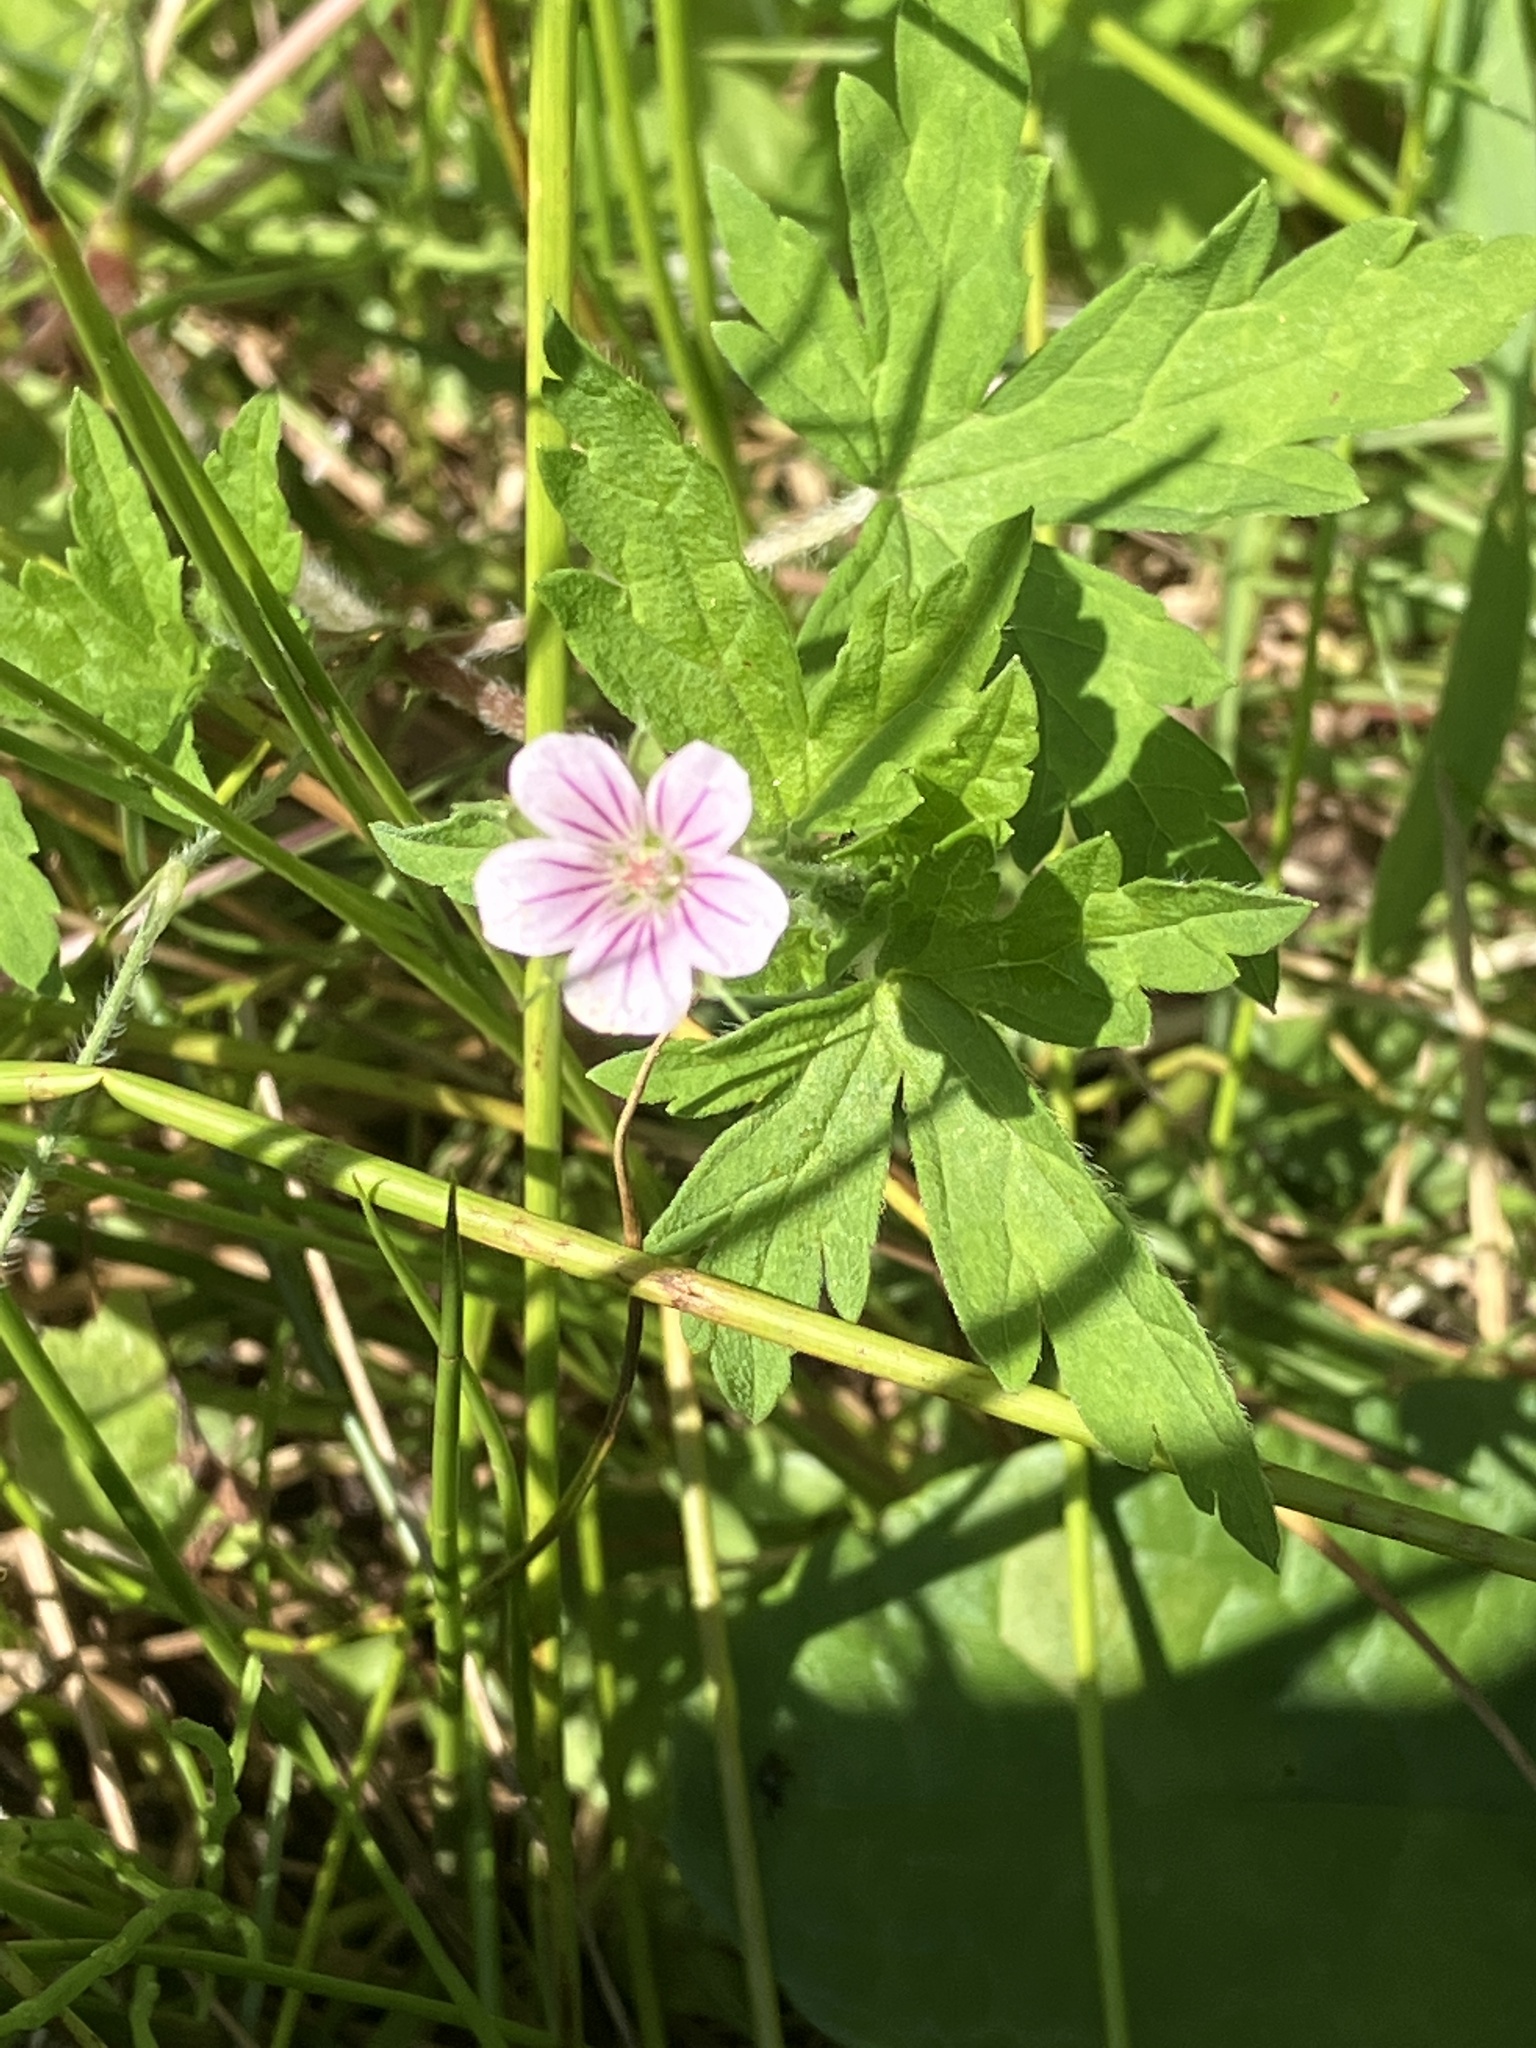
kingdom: Plantae
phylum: Tracheophyta
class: Magnoliopsida
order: Geraniales
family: Geraniaceae
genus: Geranium
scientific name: Geranium sibiricum
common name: Siberian crane's-bill
